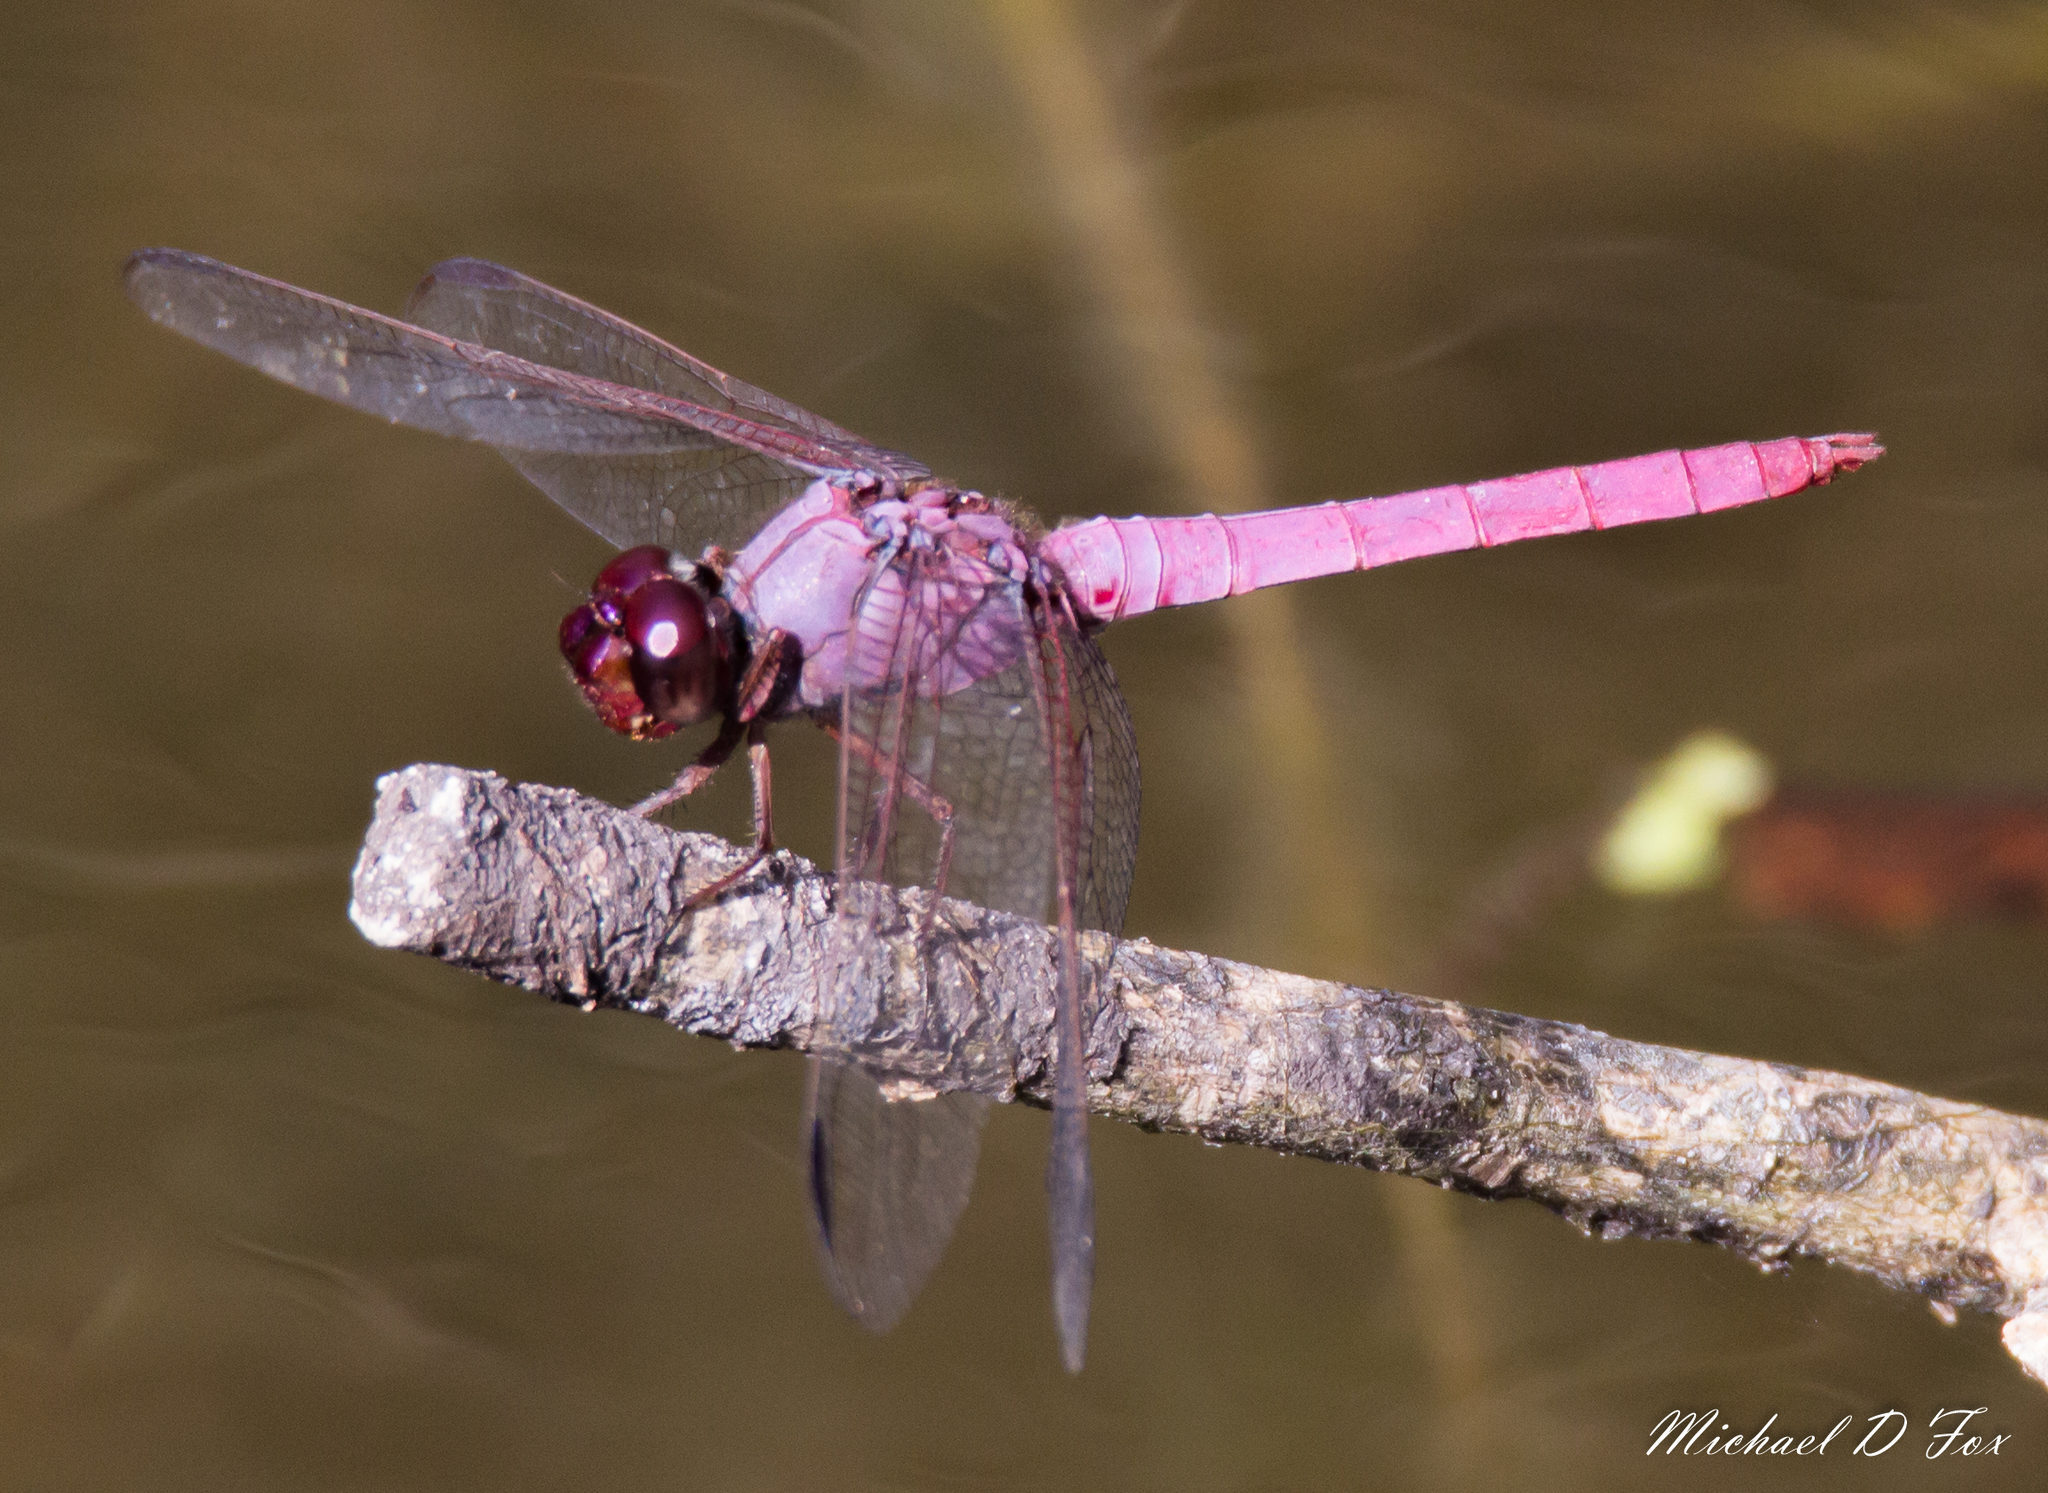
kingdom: Animalia
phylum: Arthropoda
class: Insecta
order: Odonata
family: Libellulidae
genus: Orthemis
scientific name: Orthemis ferruginea
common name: Roseate skimmer
